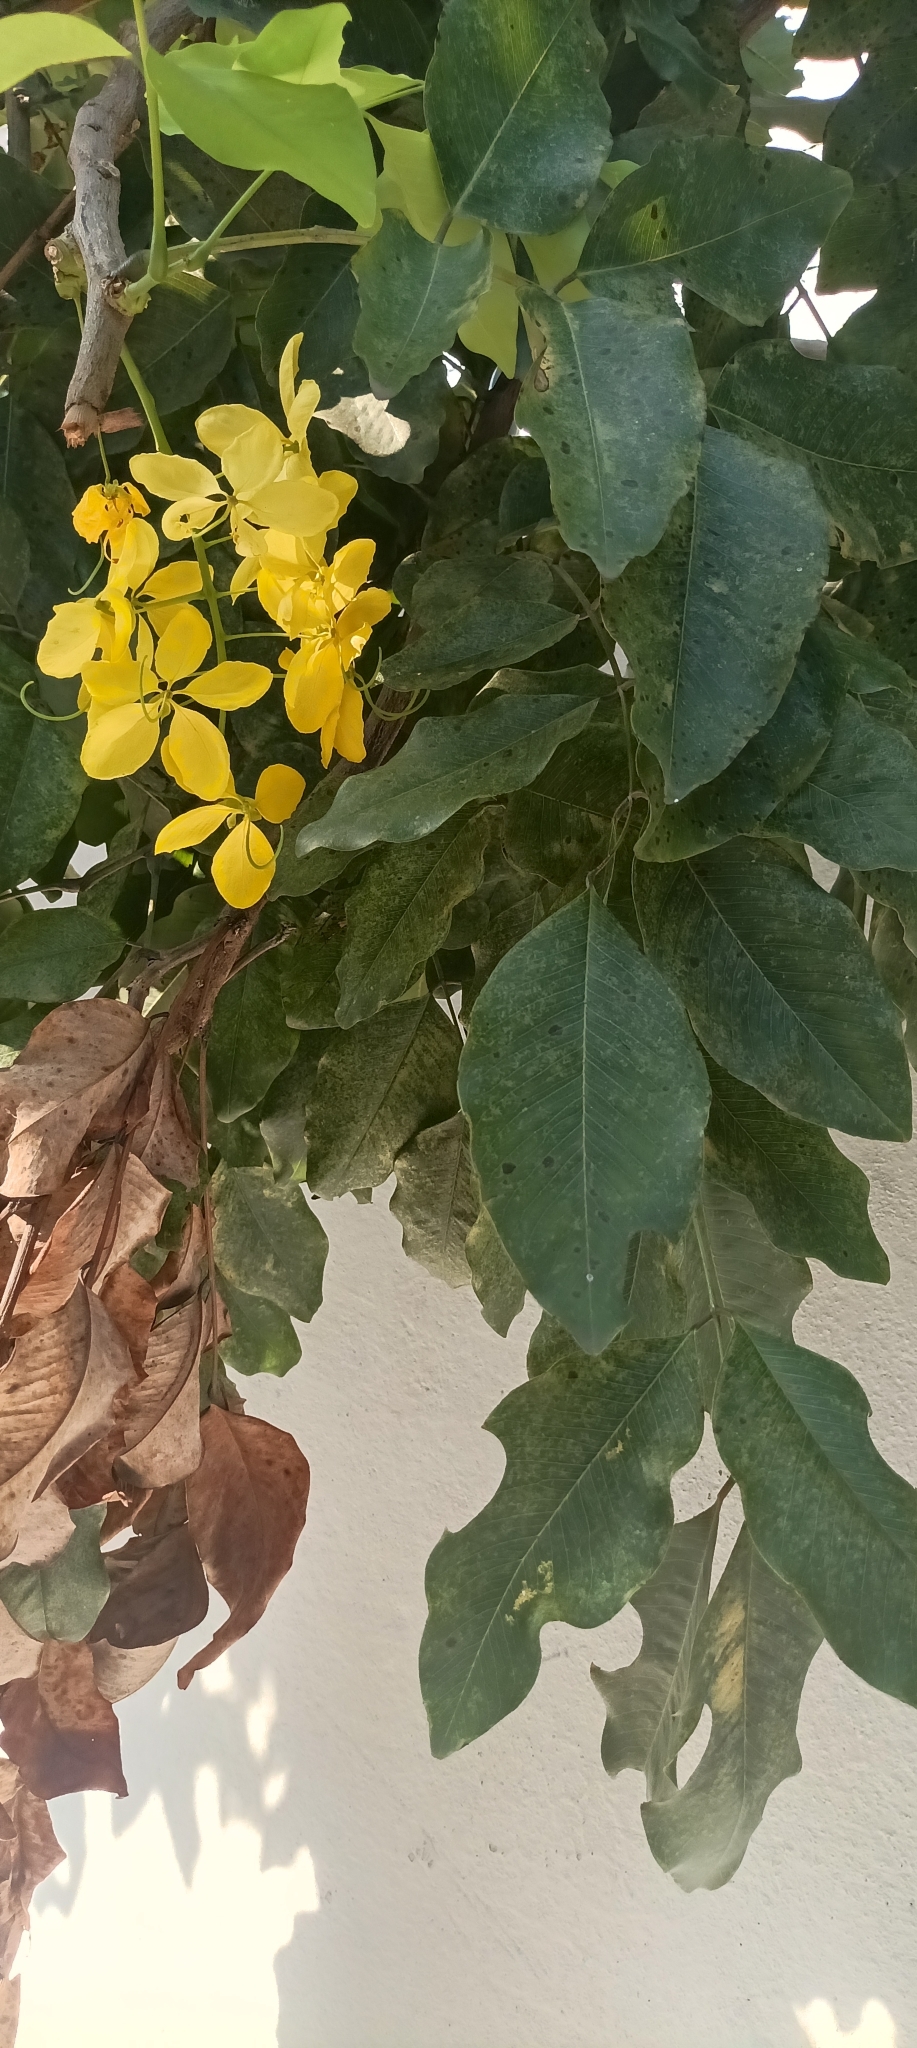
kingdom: Plantae
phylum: Tracheophyta
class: Magnoliopsida
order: Fabales
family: Fabaceae
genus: Cassia
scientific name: Cassia fistula
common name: Golden shower
